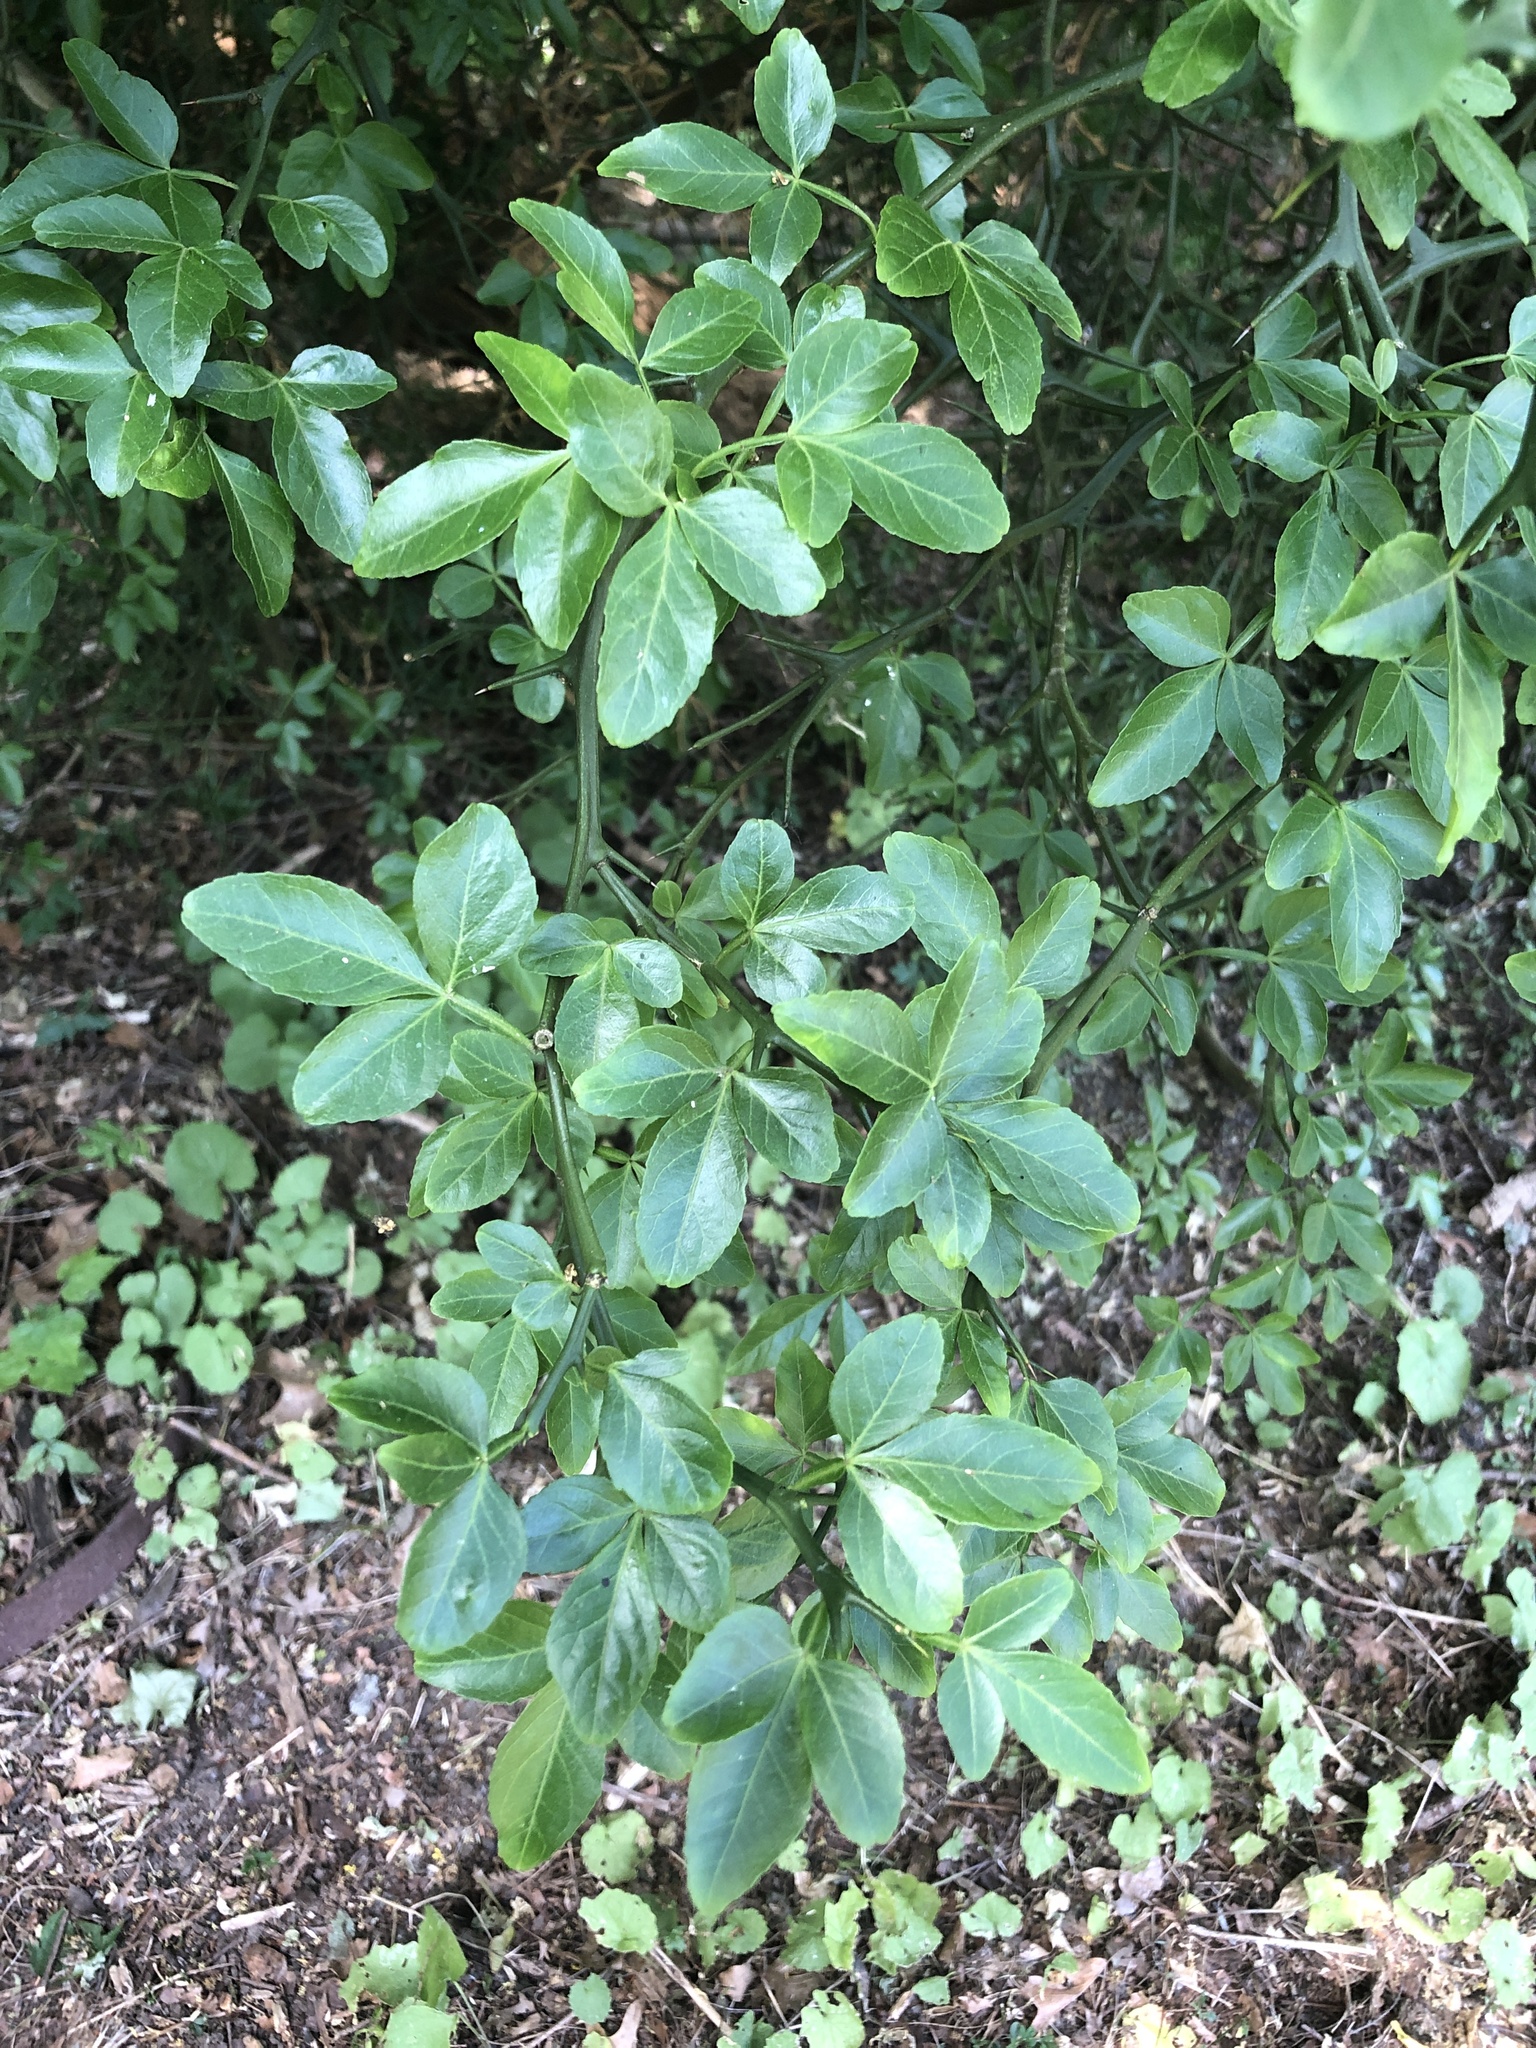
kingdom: Plantae
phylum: Tracheophyta
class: Magnoliopsida
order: Sapindales
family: Rutaceae
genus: Citrus
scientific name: Citrus trifoliata
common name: Japanese bitter-orange
